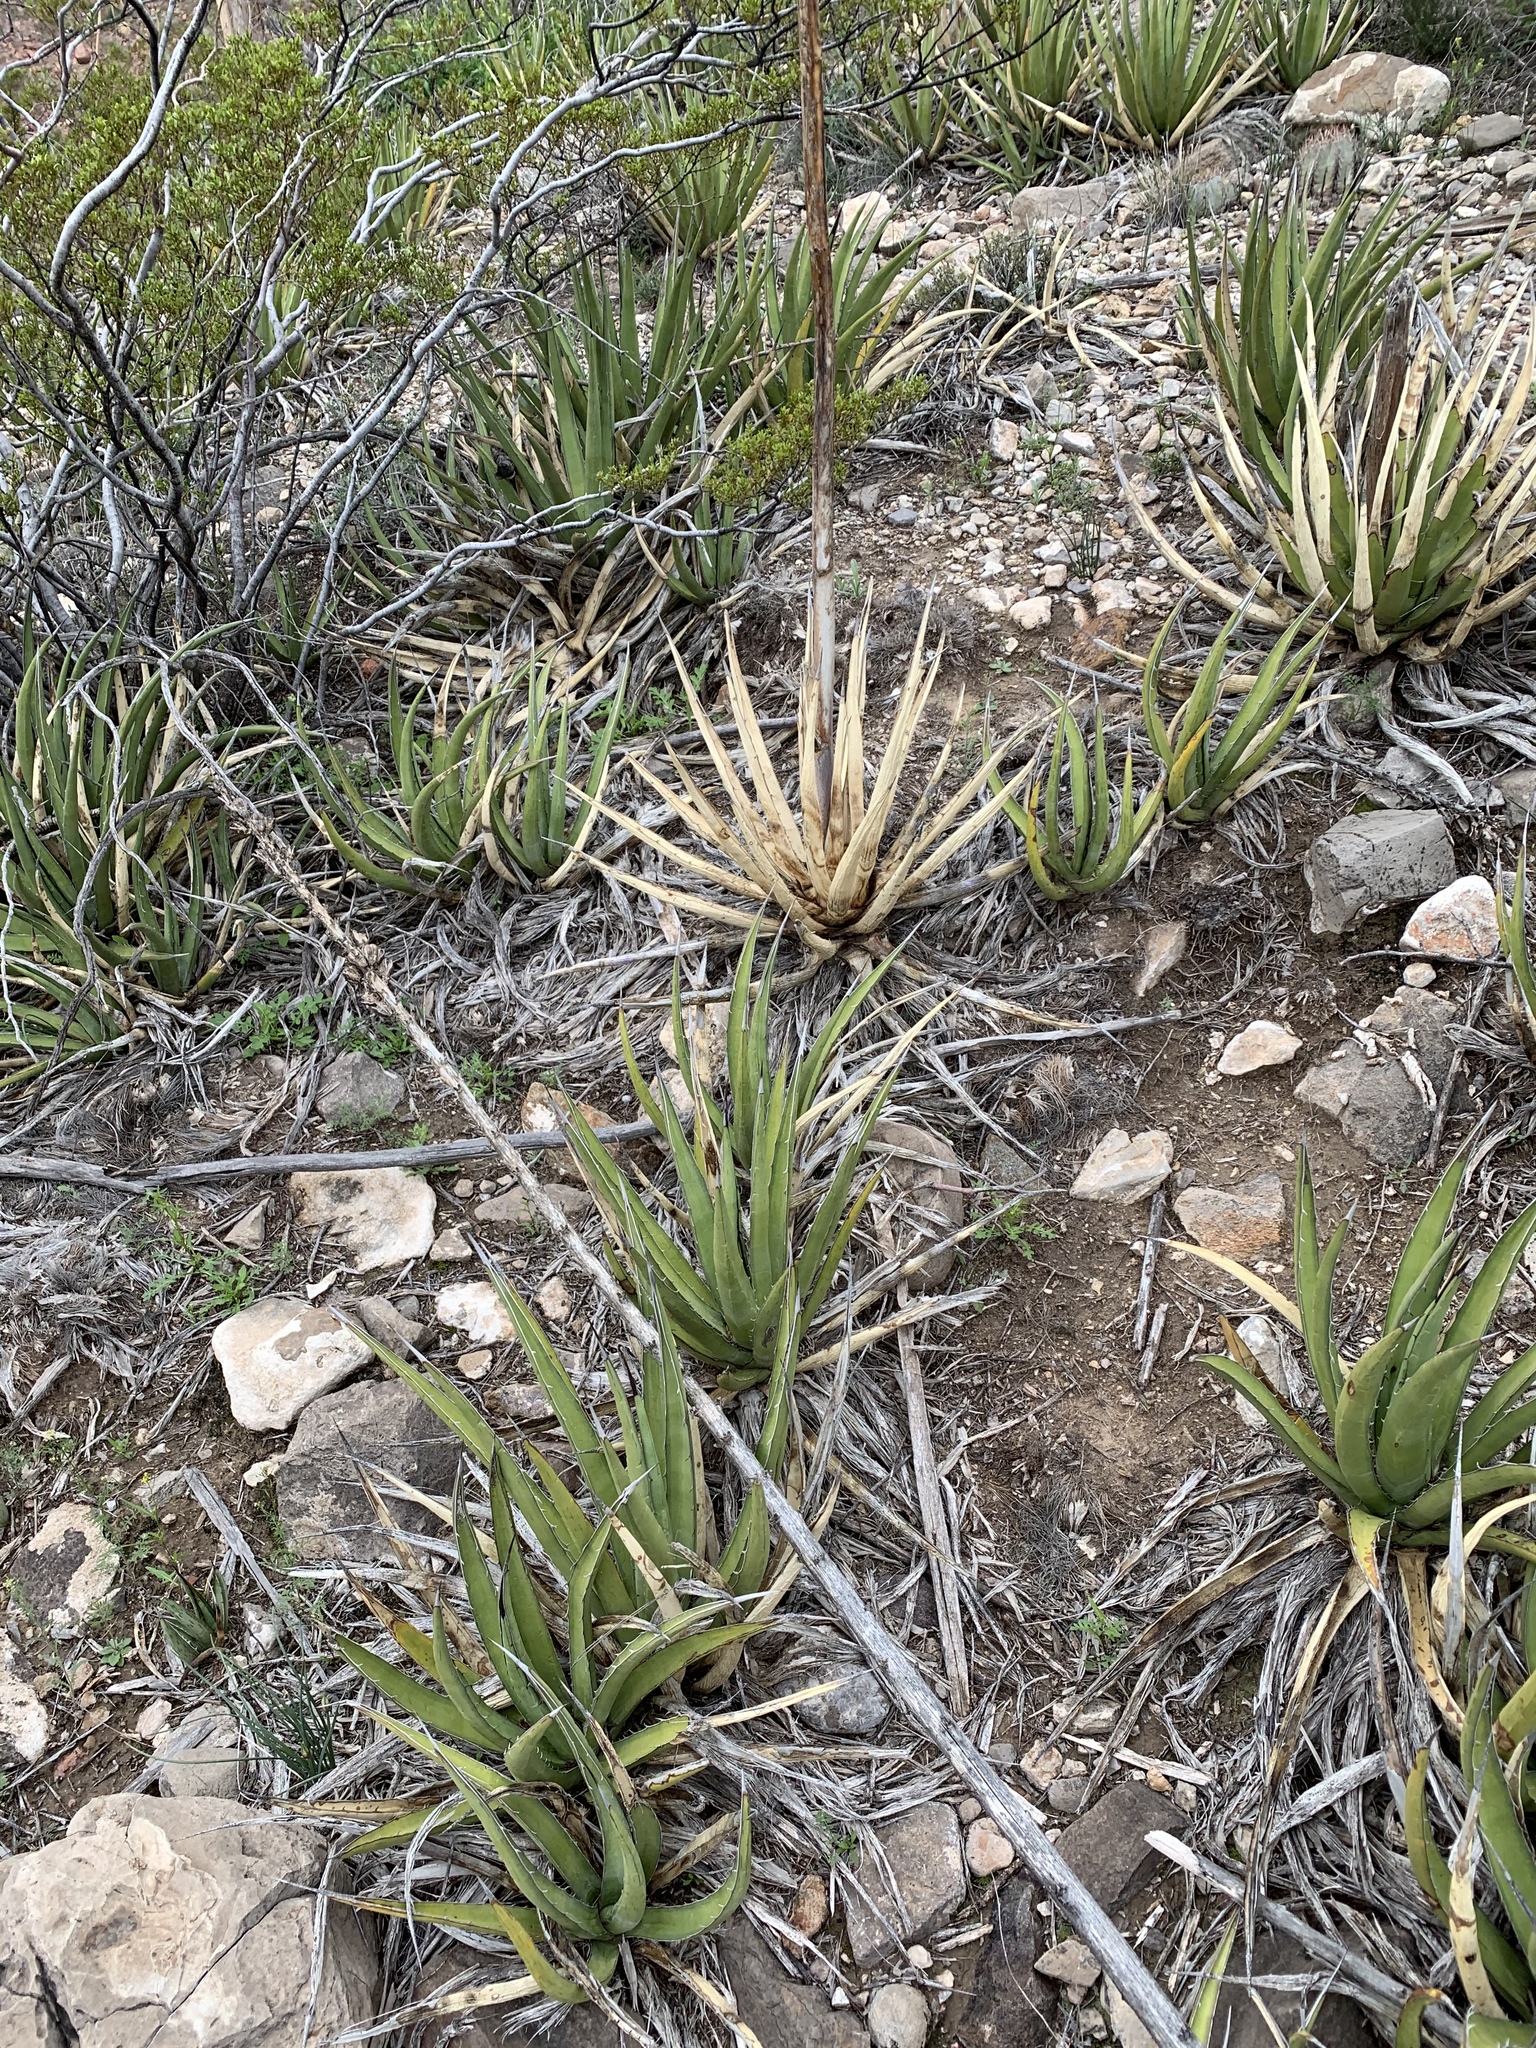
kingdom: Plantae
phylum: Tracheophyta
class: Liliopsida
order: Asparagales
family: Asparagaceae
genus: Agave
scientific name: Agave lechuguilla
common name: Lecheguilla agave
